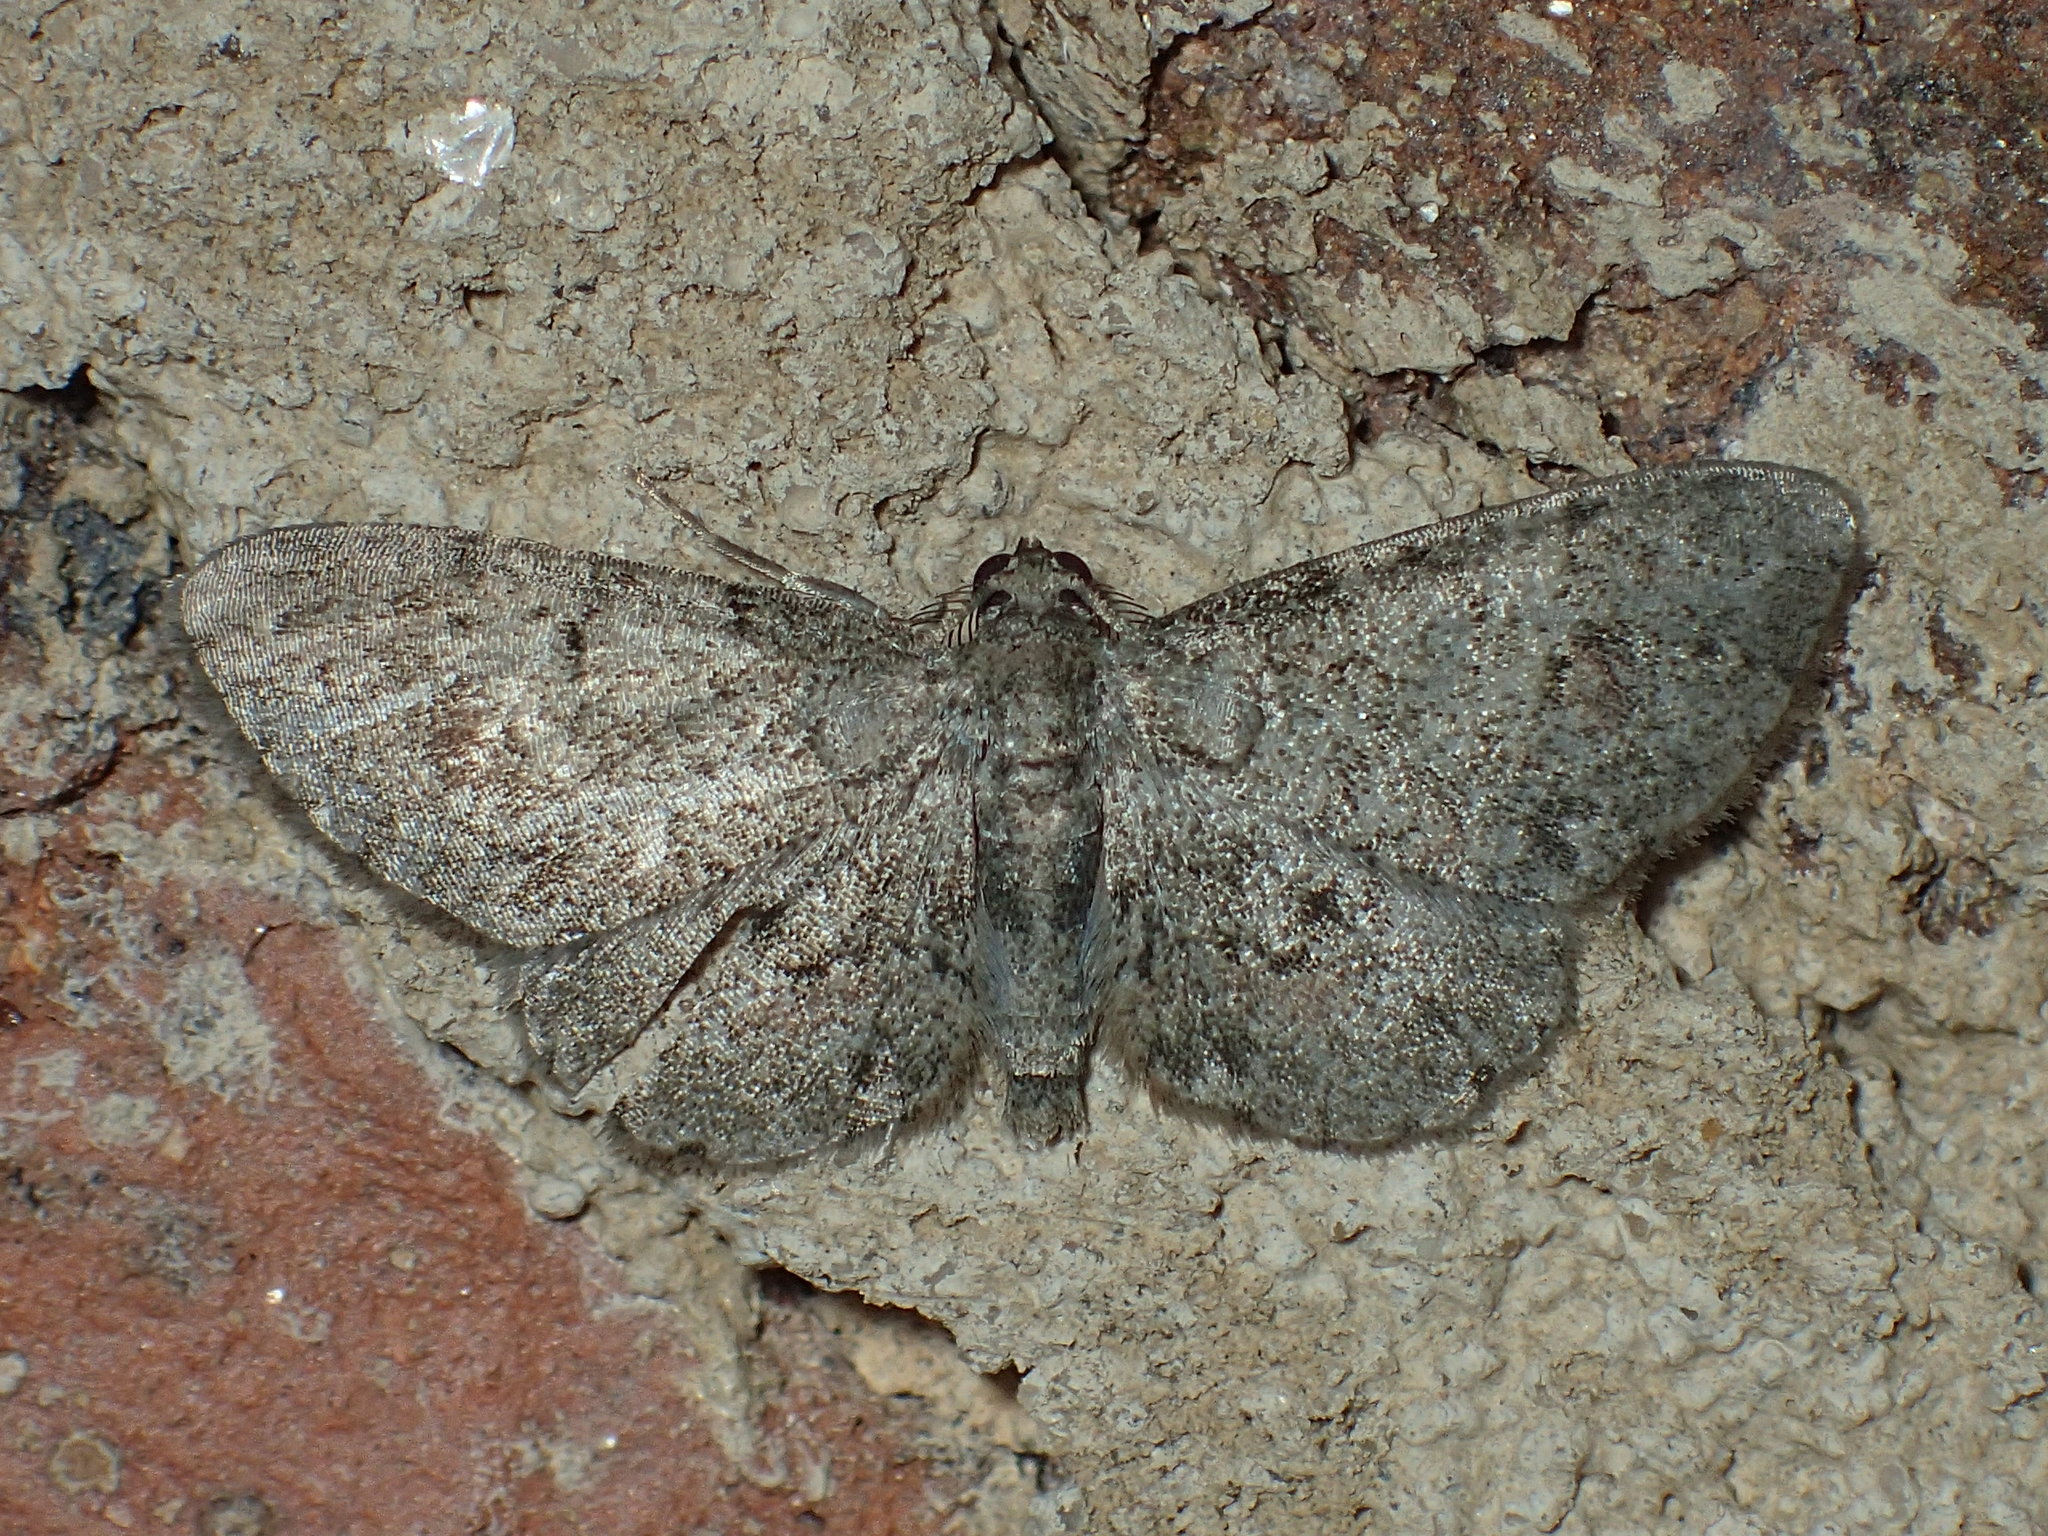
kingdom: Animalia
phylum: Arthropoda
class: Insecta
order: Lepidoptera
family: Geometridae
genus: Glenoides
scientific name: Glenoides texanaria
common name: Texas gray
